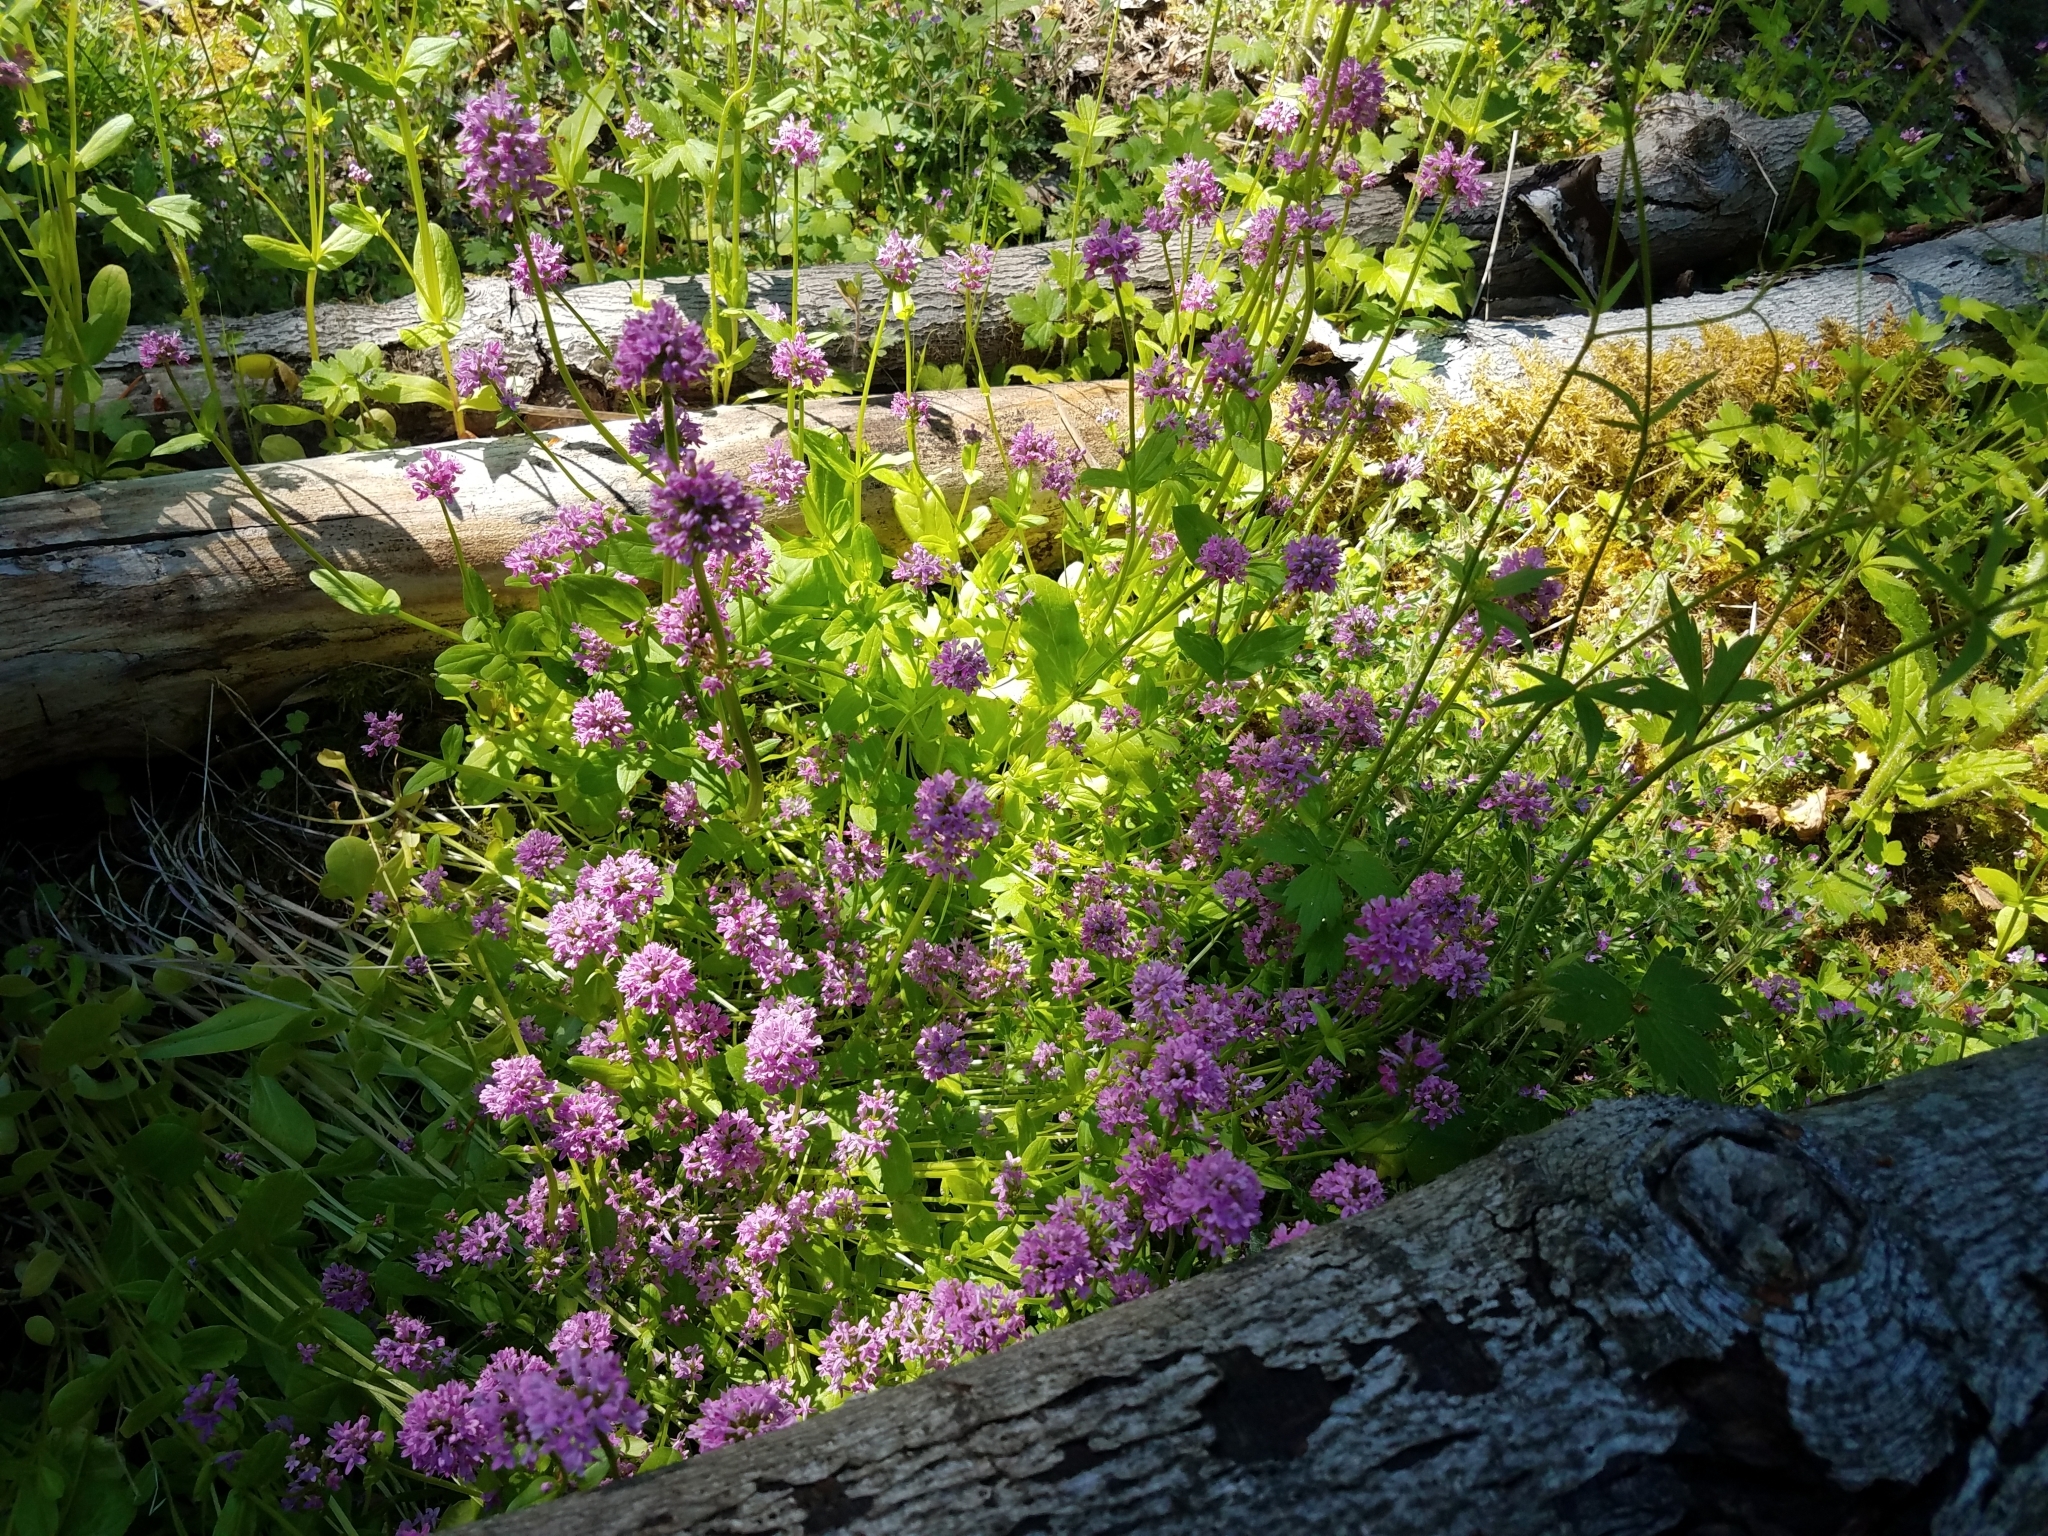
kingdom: Plantae
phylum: Tracheophyta
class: Magnoliopsida
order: Dipsacales
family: Caprifoliaceae
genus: Plectritis
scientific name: Plectritis congesta
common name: Pink plectritis
